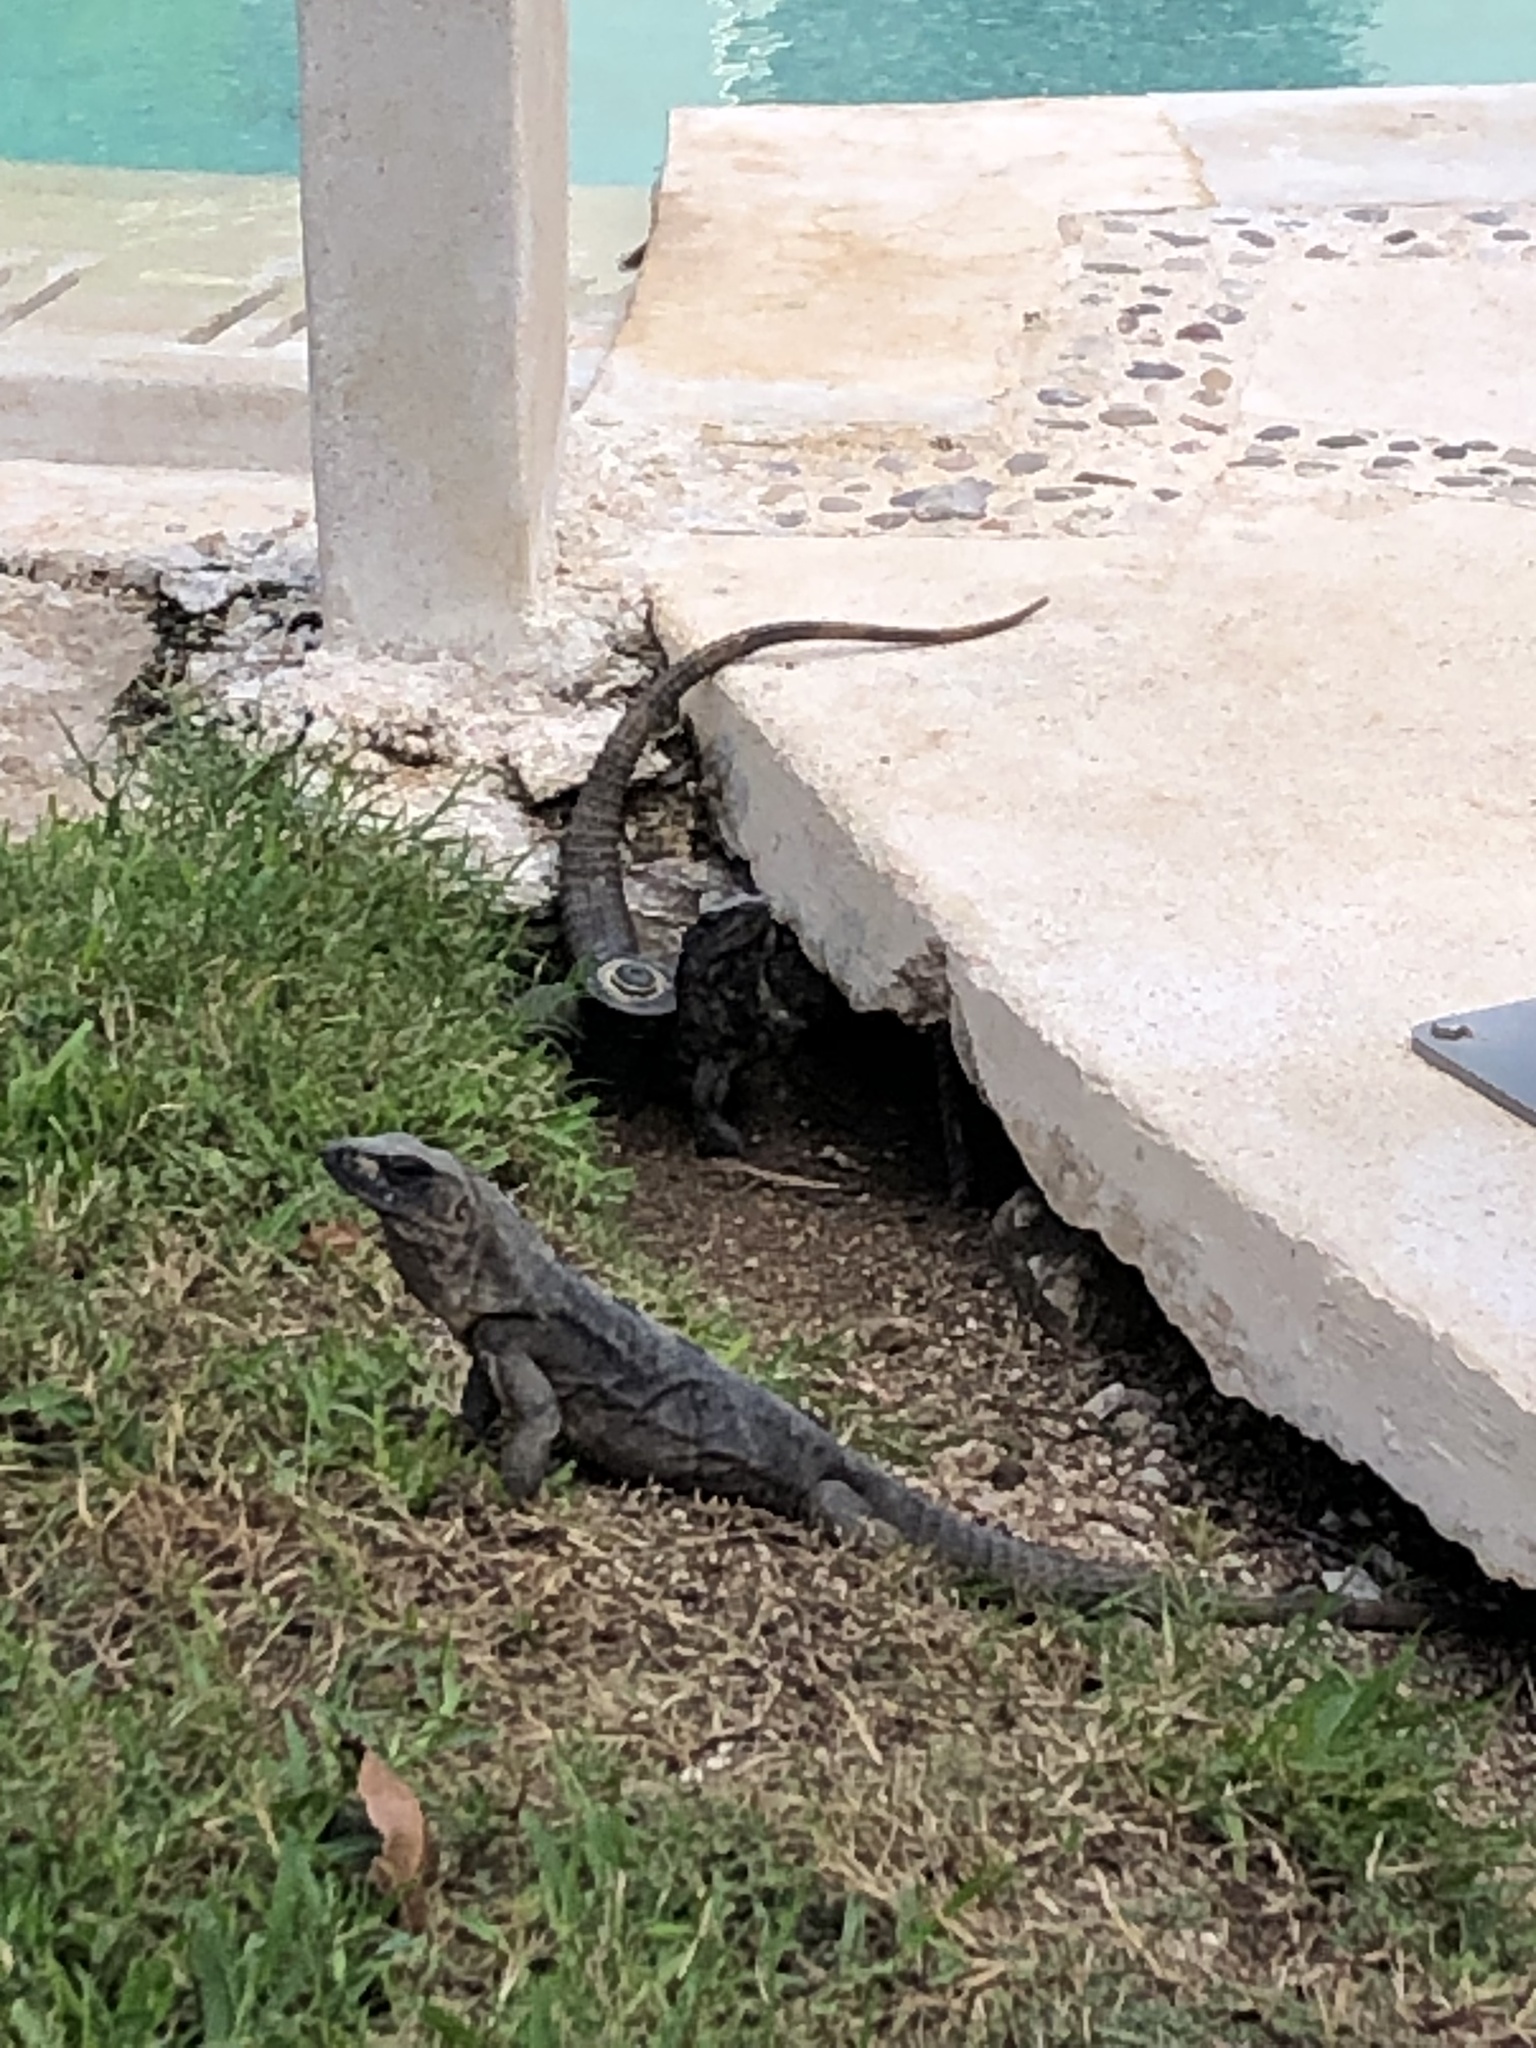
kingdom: Animalia
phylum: Chordata
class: Squamata
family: Iguanidae
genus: Ctenosaura
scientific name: Ctenosaura similis
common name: Black spiny-tailed iguana
